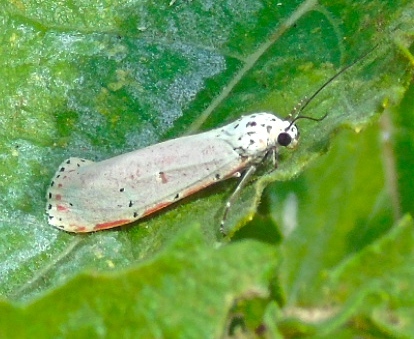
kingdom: Animalia
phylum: Arthropoda
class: Insecta
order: Lepidoptera
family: Erebidae
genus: Utetheisa
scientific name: Utetheisa ornatrix
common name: Beautiful utetheisa
